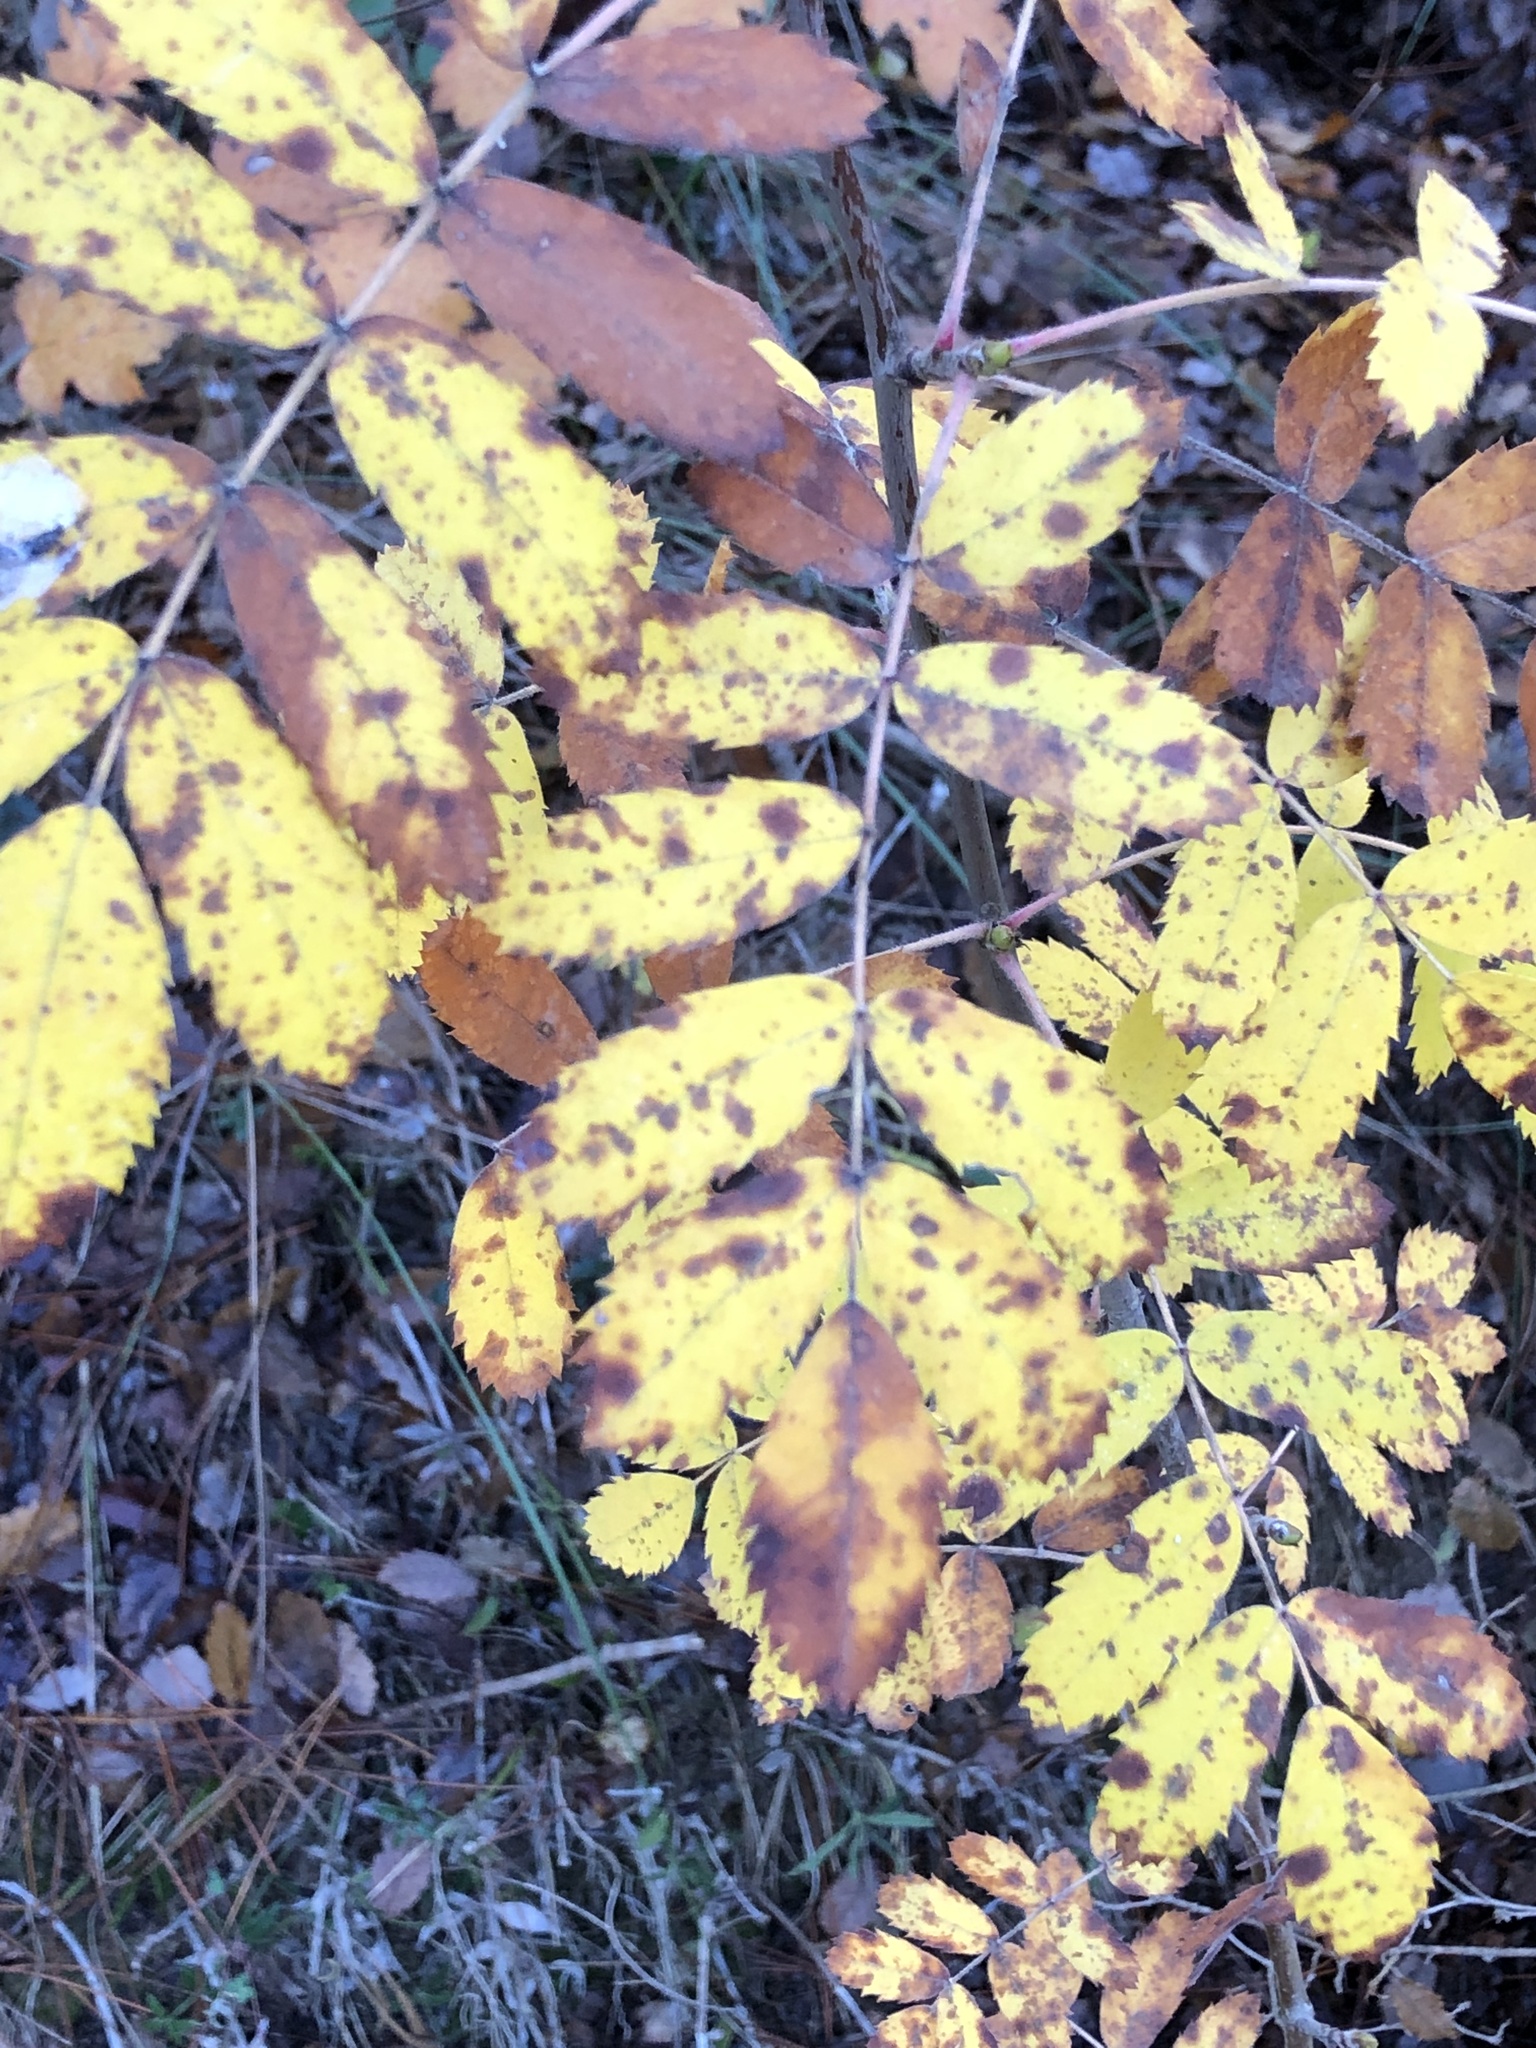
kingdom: Plantae
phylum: Tracheophyta
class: Magnoliopsida
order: Rosales
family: Rosaceae
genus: Cormus
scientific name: Cormus domestica
